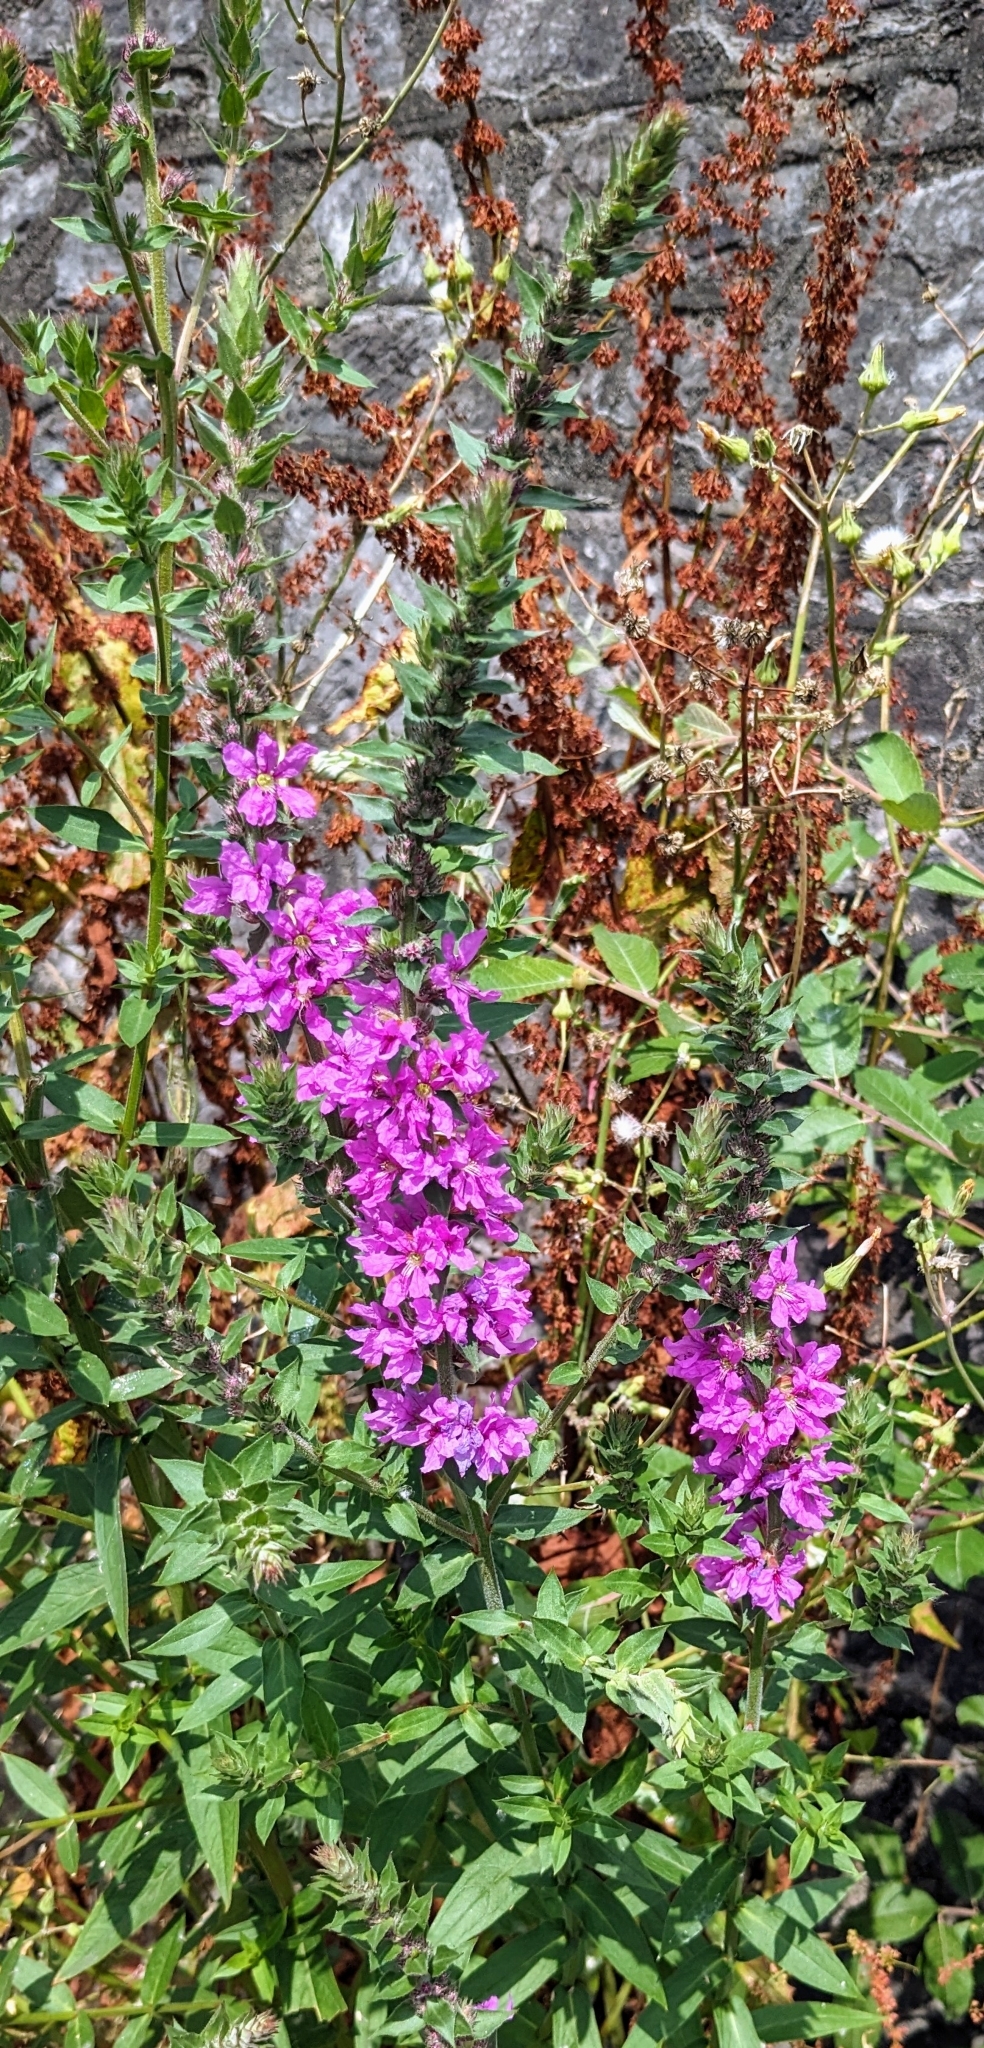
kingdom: Plantae
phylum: Tracheophyta
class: Magnoliopsida
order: Myrtales
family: Lythraceae
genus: Lythrum
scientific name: Lythrum salicaria
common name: Purple loosestrife
